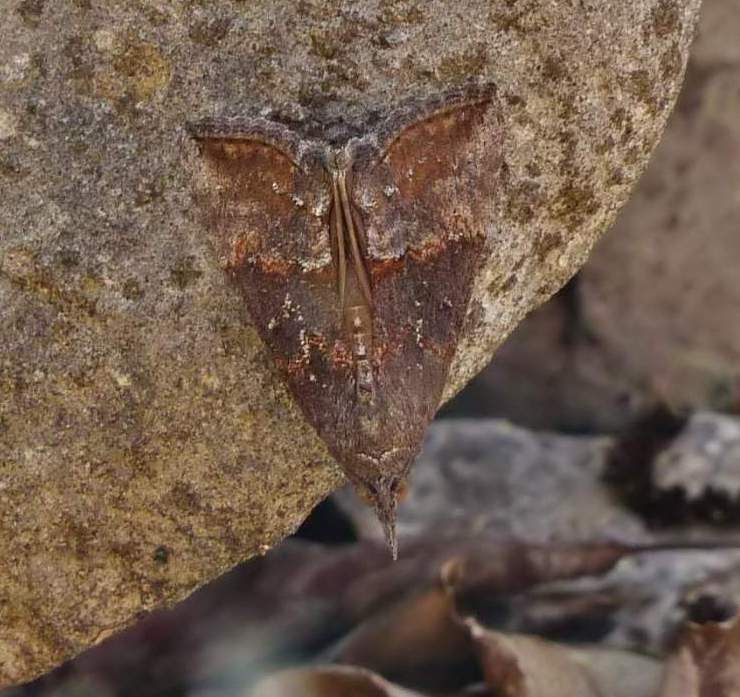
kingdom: Animalia
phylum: Arthropoda
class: Insecta
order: Lepidoptera
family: Erebidae
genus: Hypena
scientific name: Hypena scabra
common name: Green cloverworm
